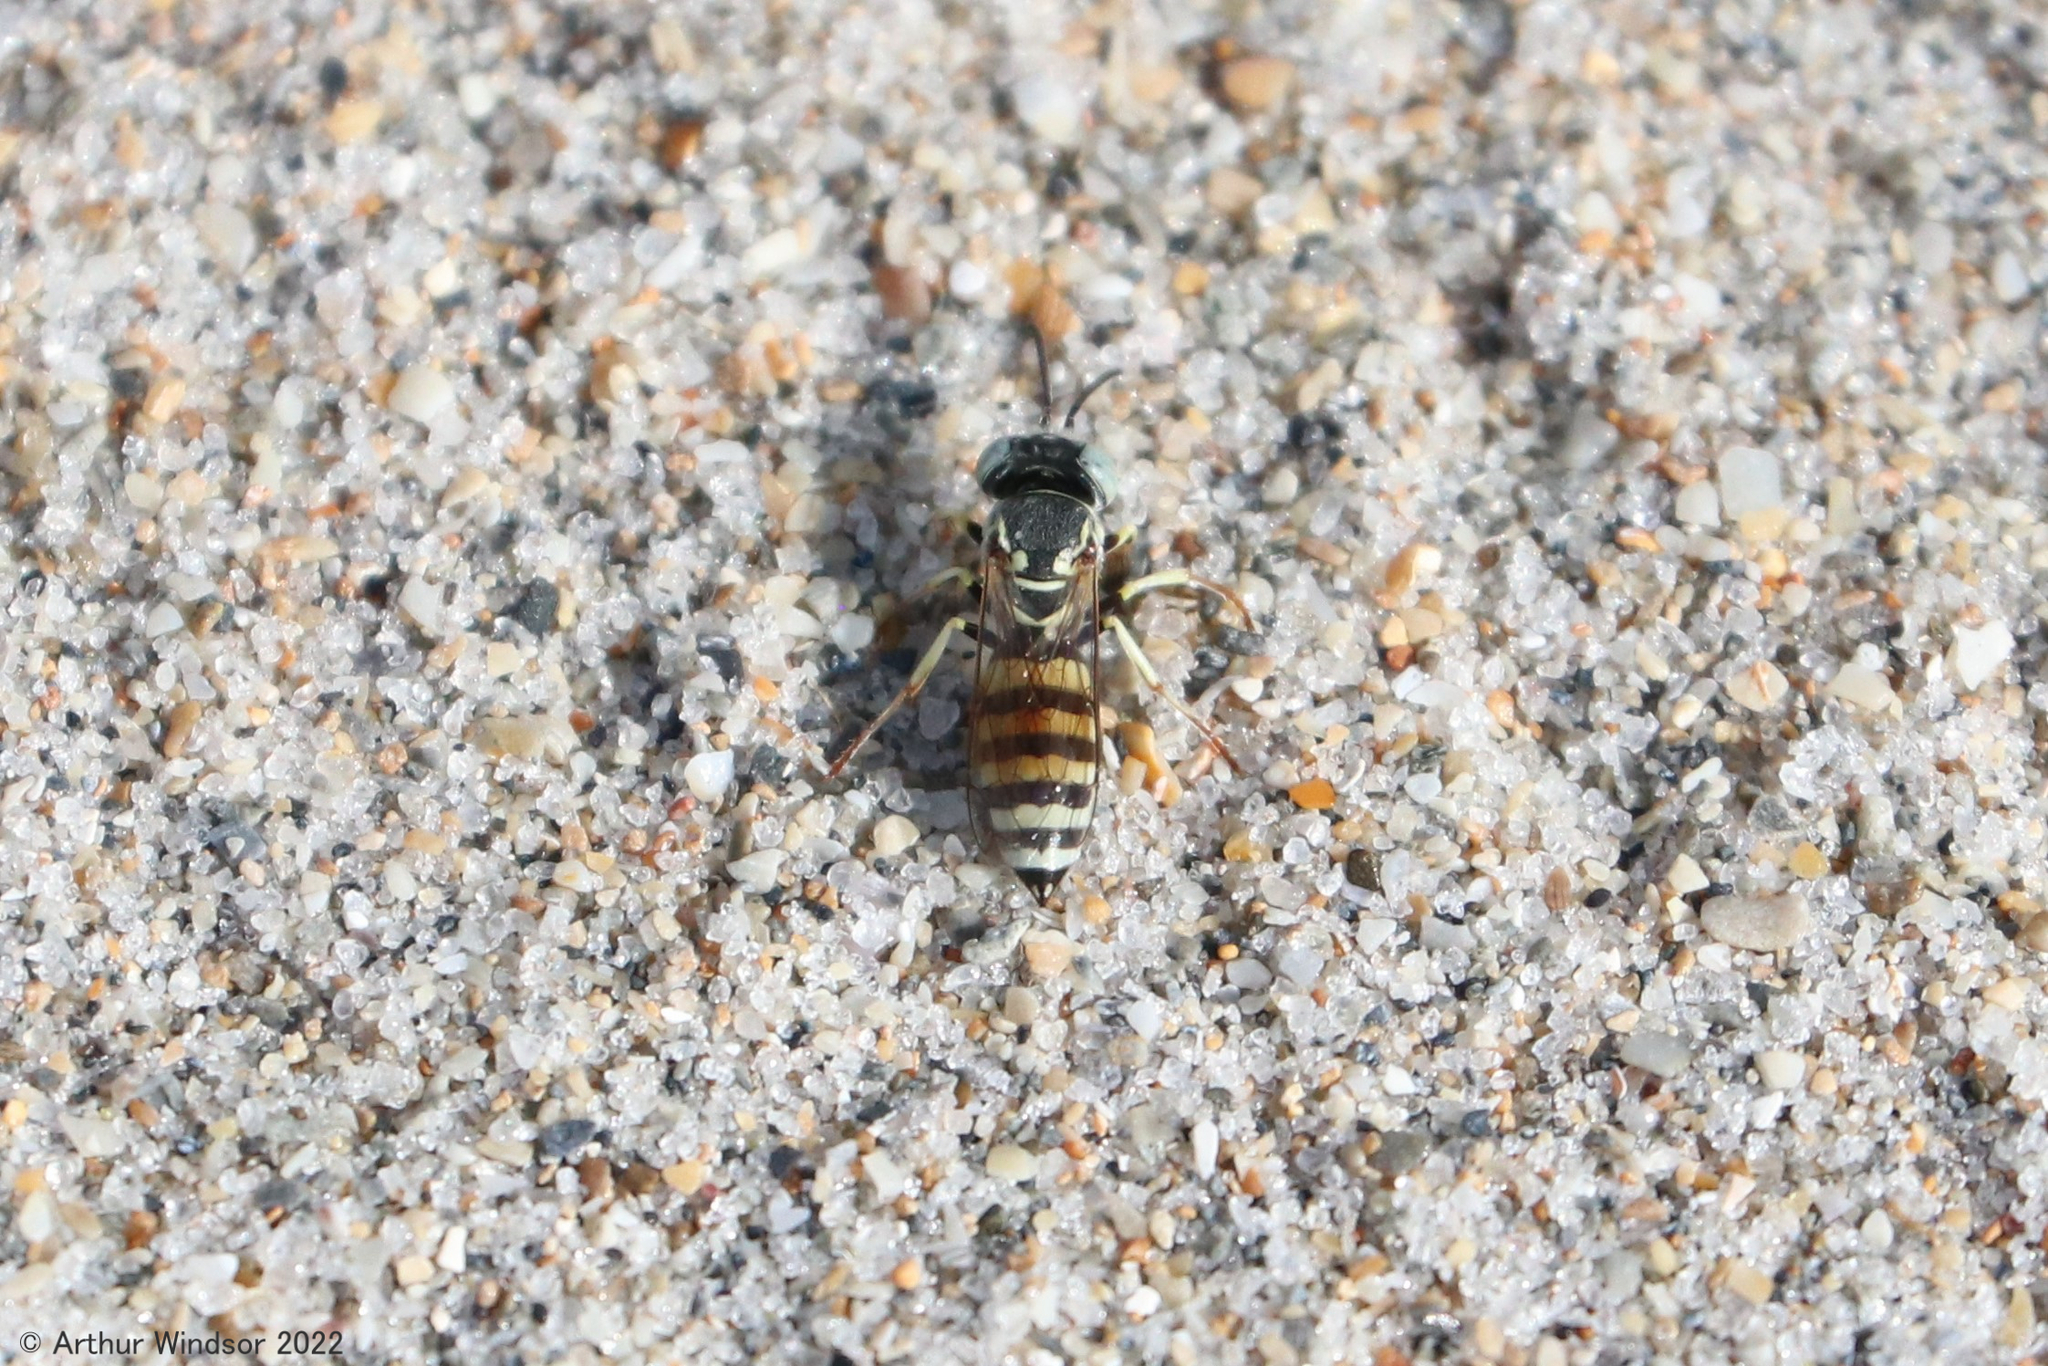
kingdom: Animalia
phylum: Arthropoda
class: Insecta
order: Hymenoptera
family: Crabronidae
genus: Microbembex
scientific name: Microbembex monodonta
